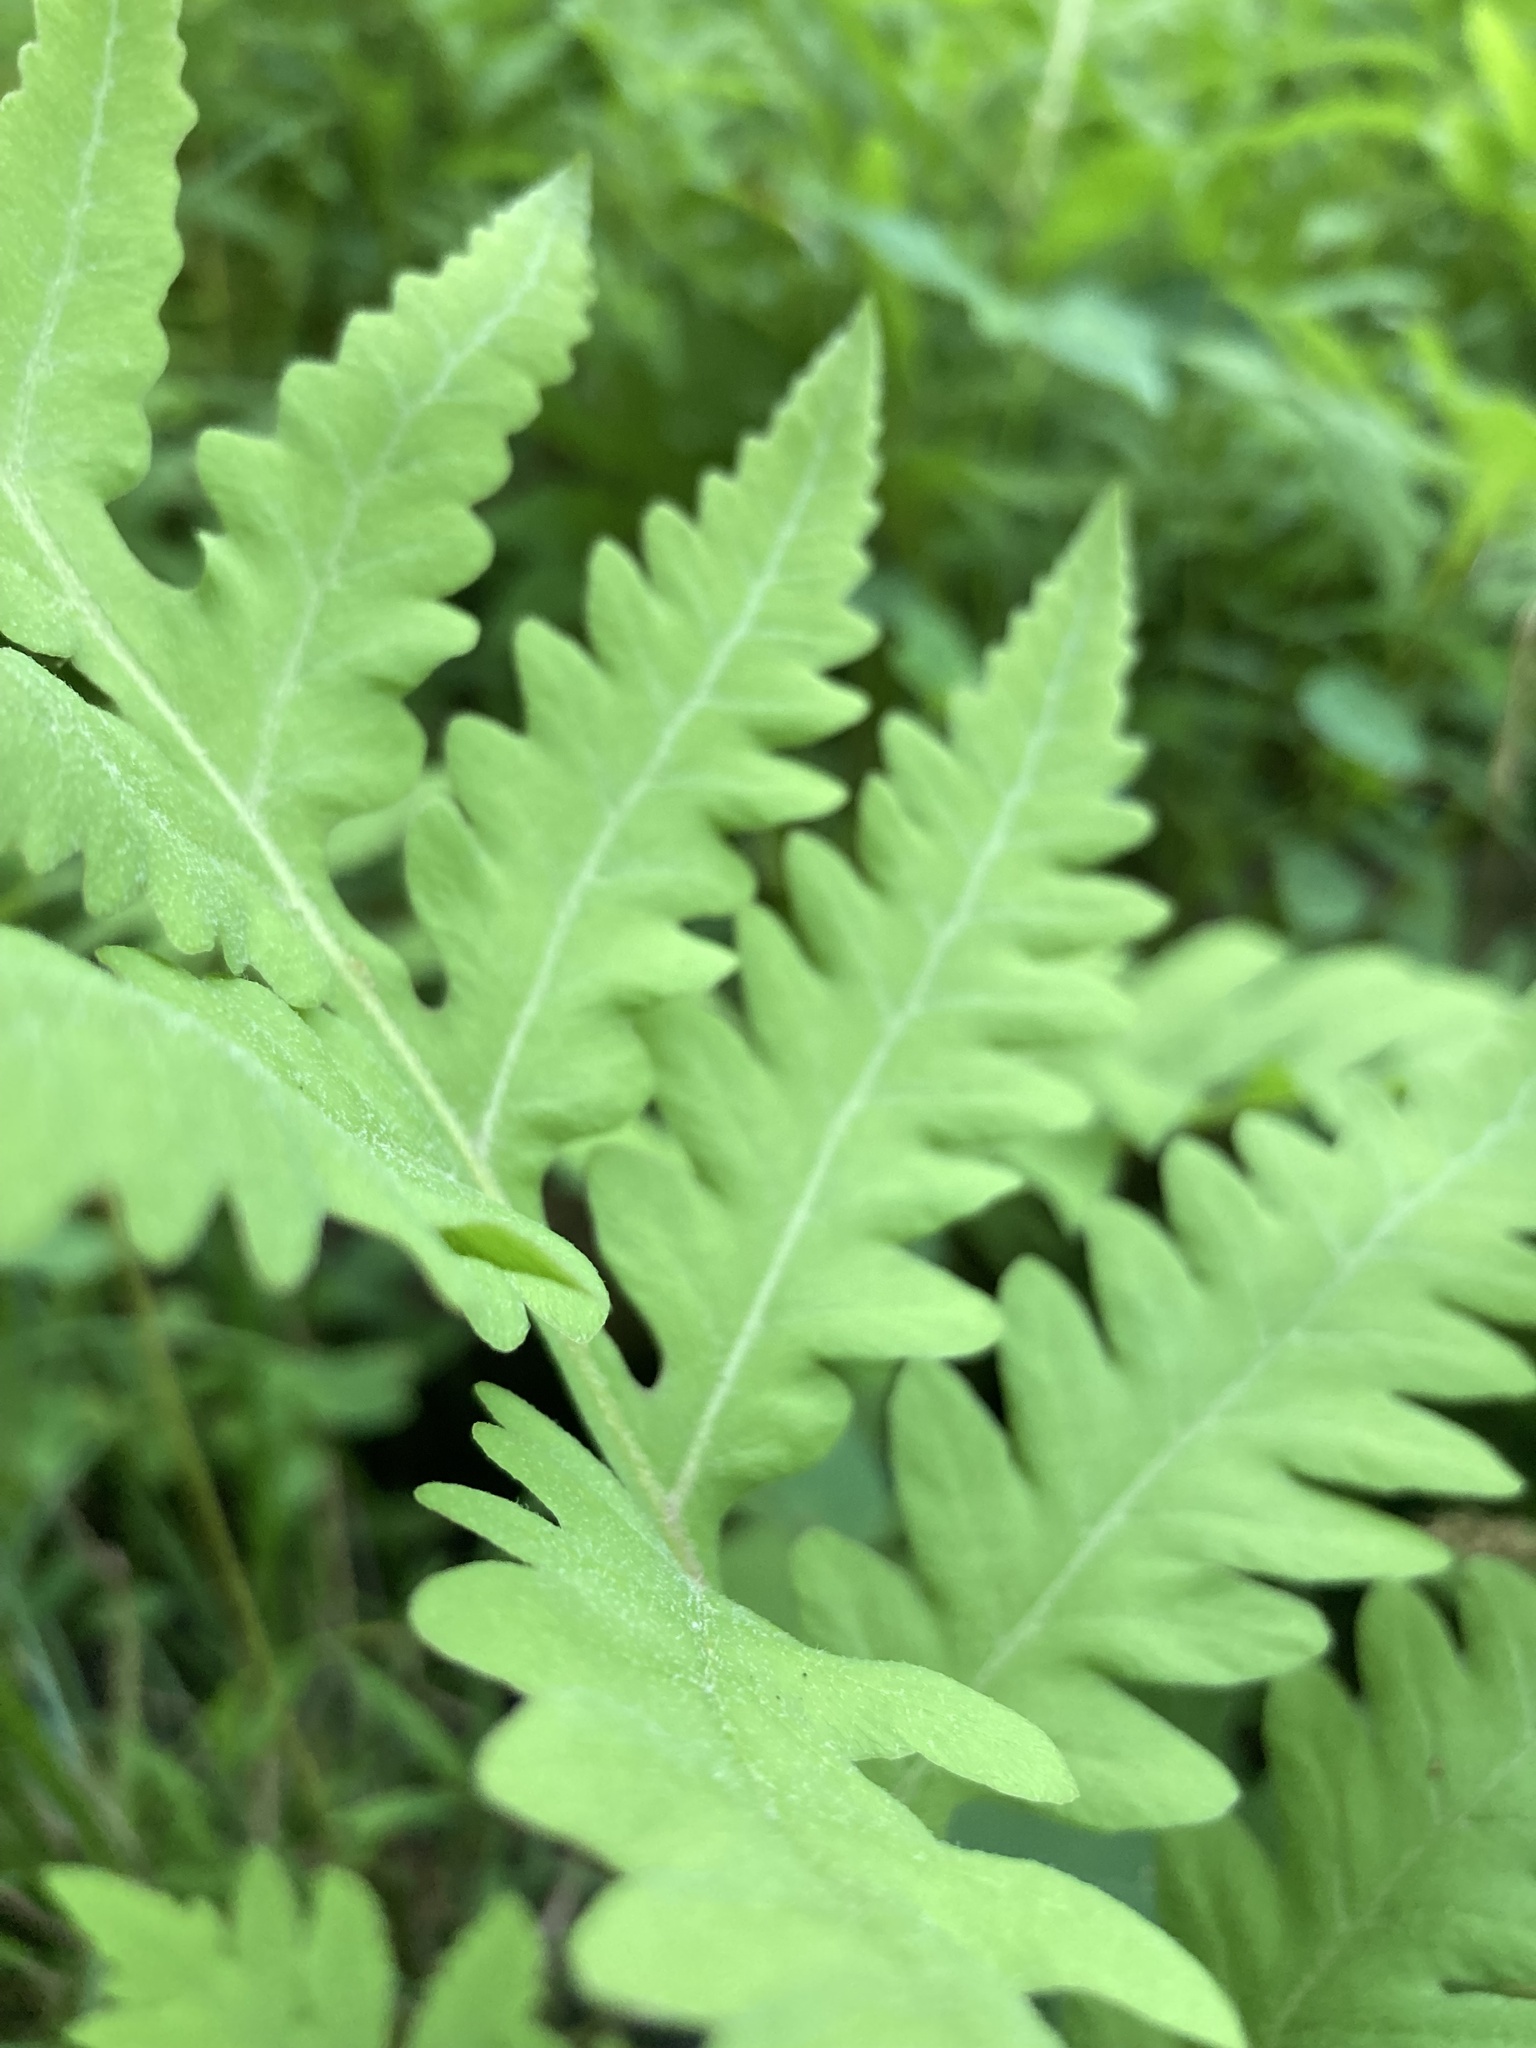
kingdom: Plantae
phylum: Tracheophyta
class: Polypodiopsida
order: Polypodiales
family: Onocleaceae
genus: Onoclea
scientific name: Onoclea sensibilis
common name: Sensitive fern
